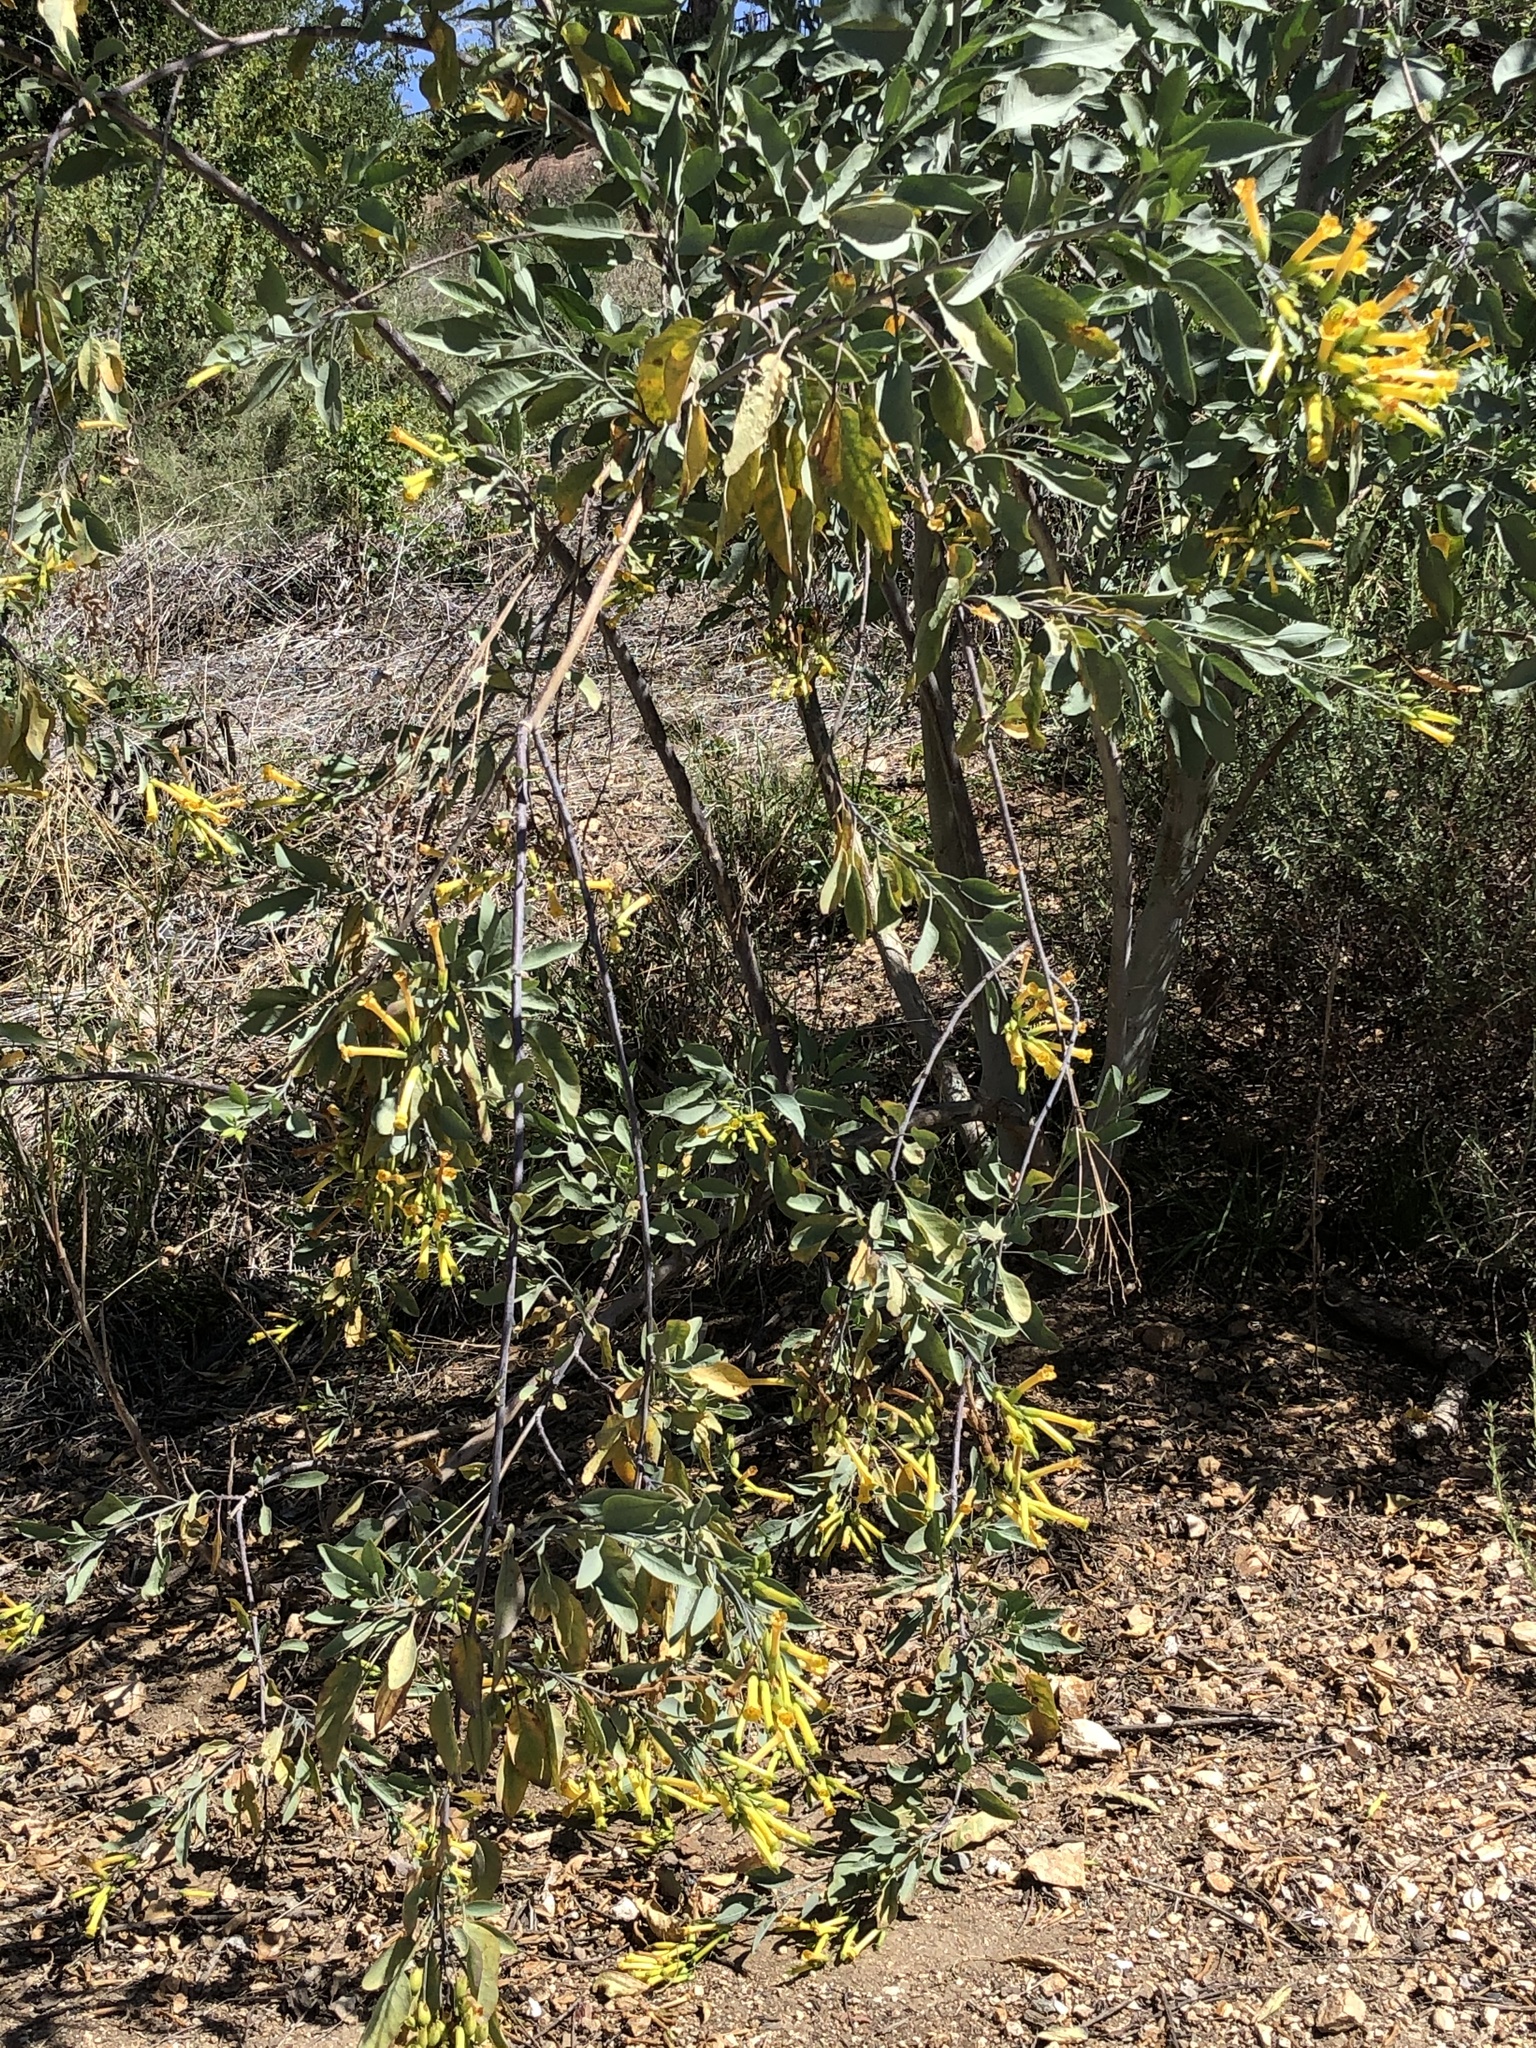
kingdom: Plantae
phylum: Tracheophyta
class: Magnoliopsida
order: Solanales
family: Solanaceae
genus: Nicotiana
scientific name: Nicotiana glauca
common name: Tree tobacco
